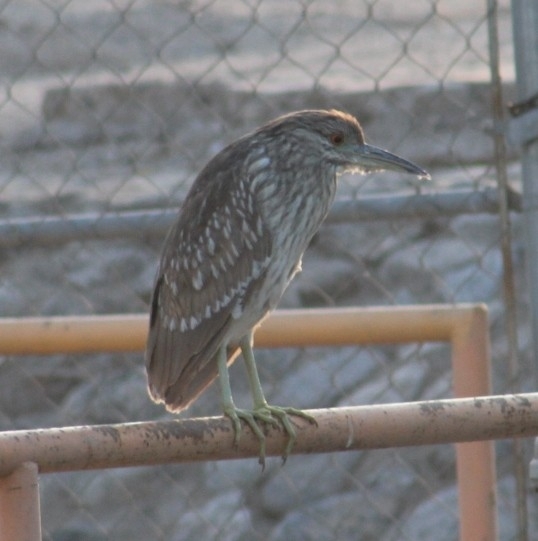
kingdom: Animalia
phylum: Chordata
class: Aves
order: Pelecaniformes
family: Ardeidae
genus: Nycticorax
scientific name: Nycticorax nycticorax
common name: Black-crowned night heron
